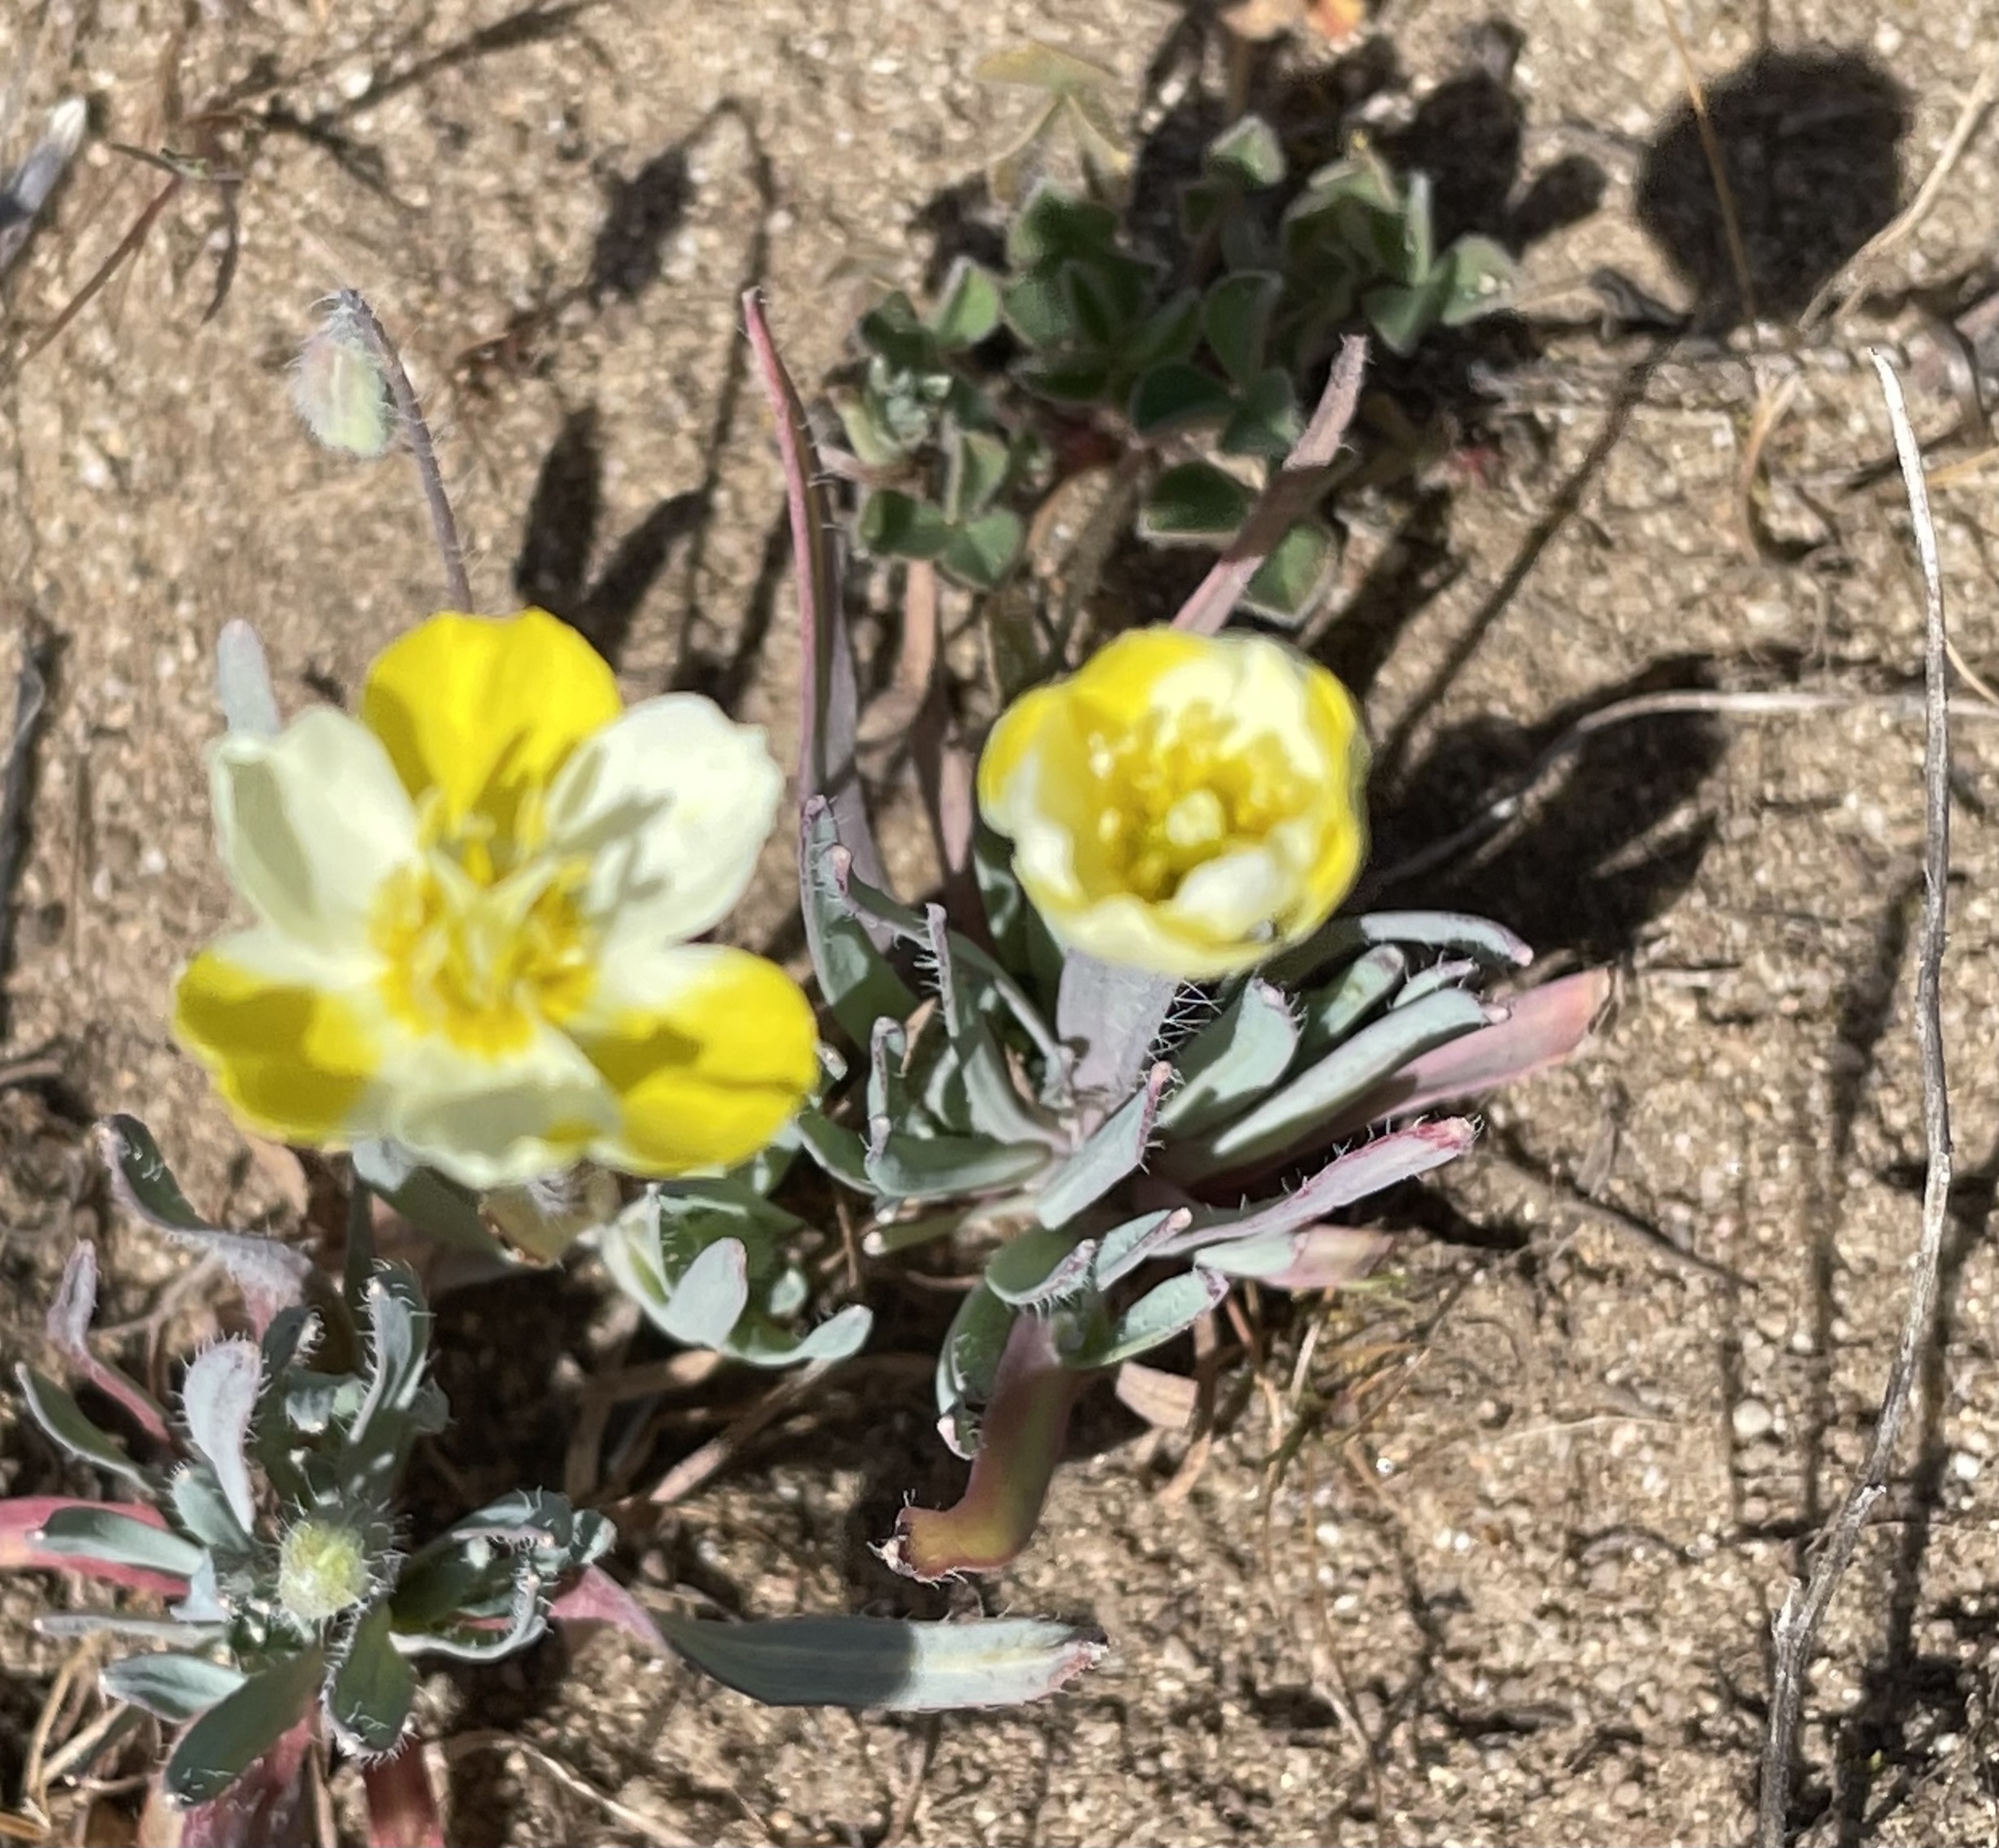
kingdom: Plantae
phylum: Tracheophyta
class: Magnoliopsida
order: Ranunculales
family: Papaveraceae
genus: Platystigma
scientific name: Platystigma lineare
